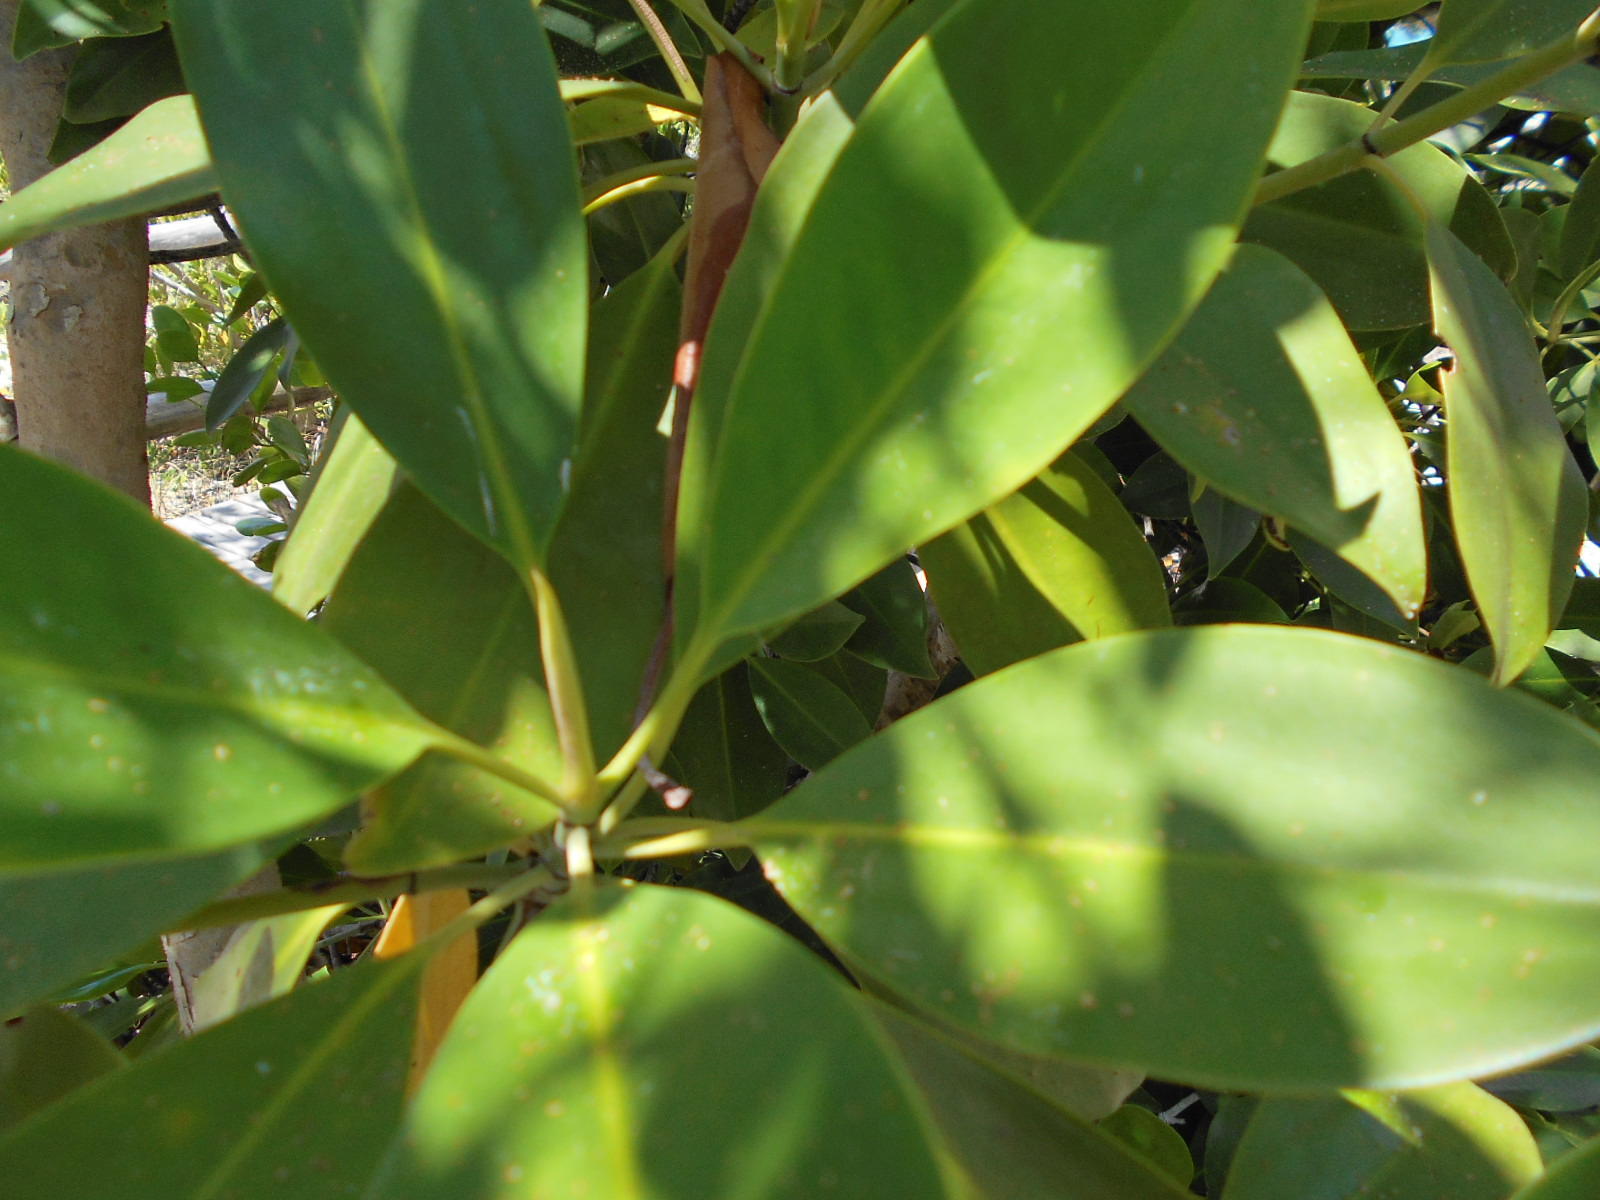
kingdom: Plantae
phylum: Tracheophyta
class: Magnoliopsida
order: Malpighiales
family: Rhizophoraceae
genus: Bruguiera
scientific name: Bruguiera gymnorhiza
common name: Oriental mangrove
